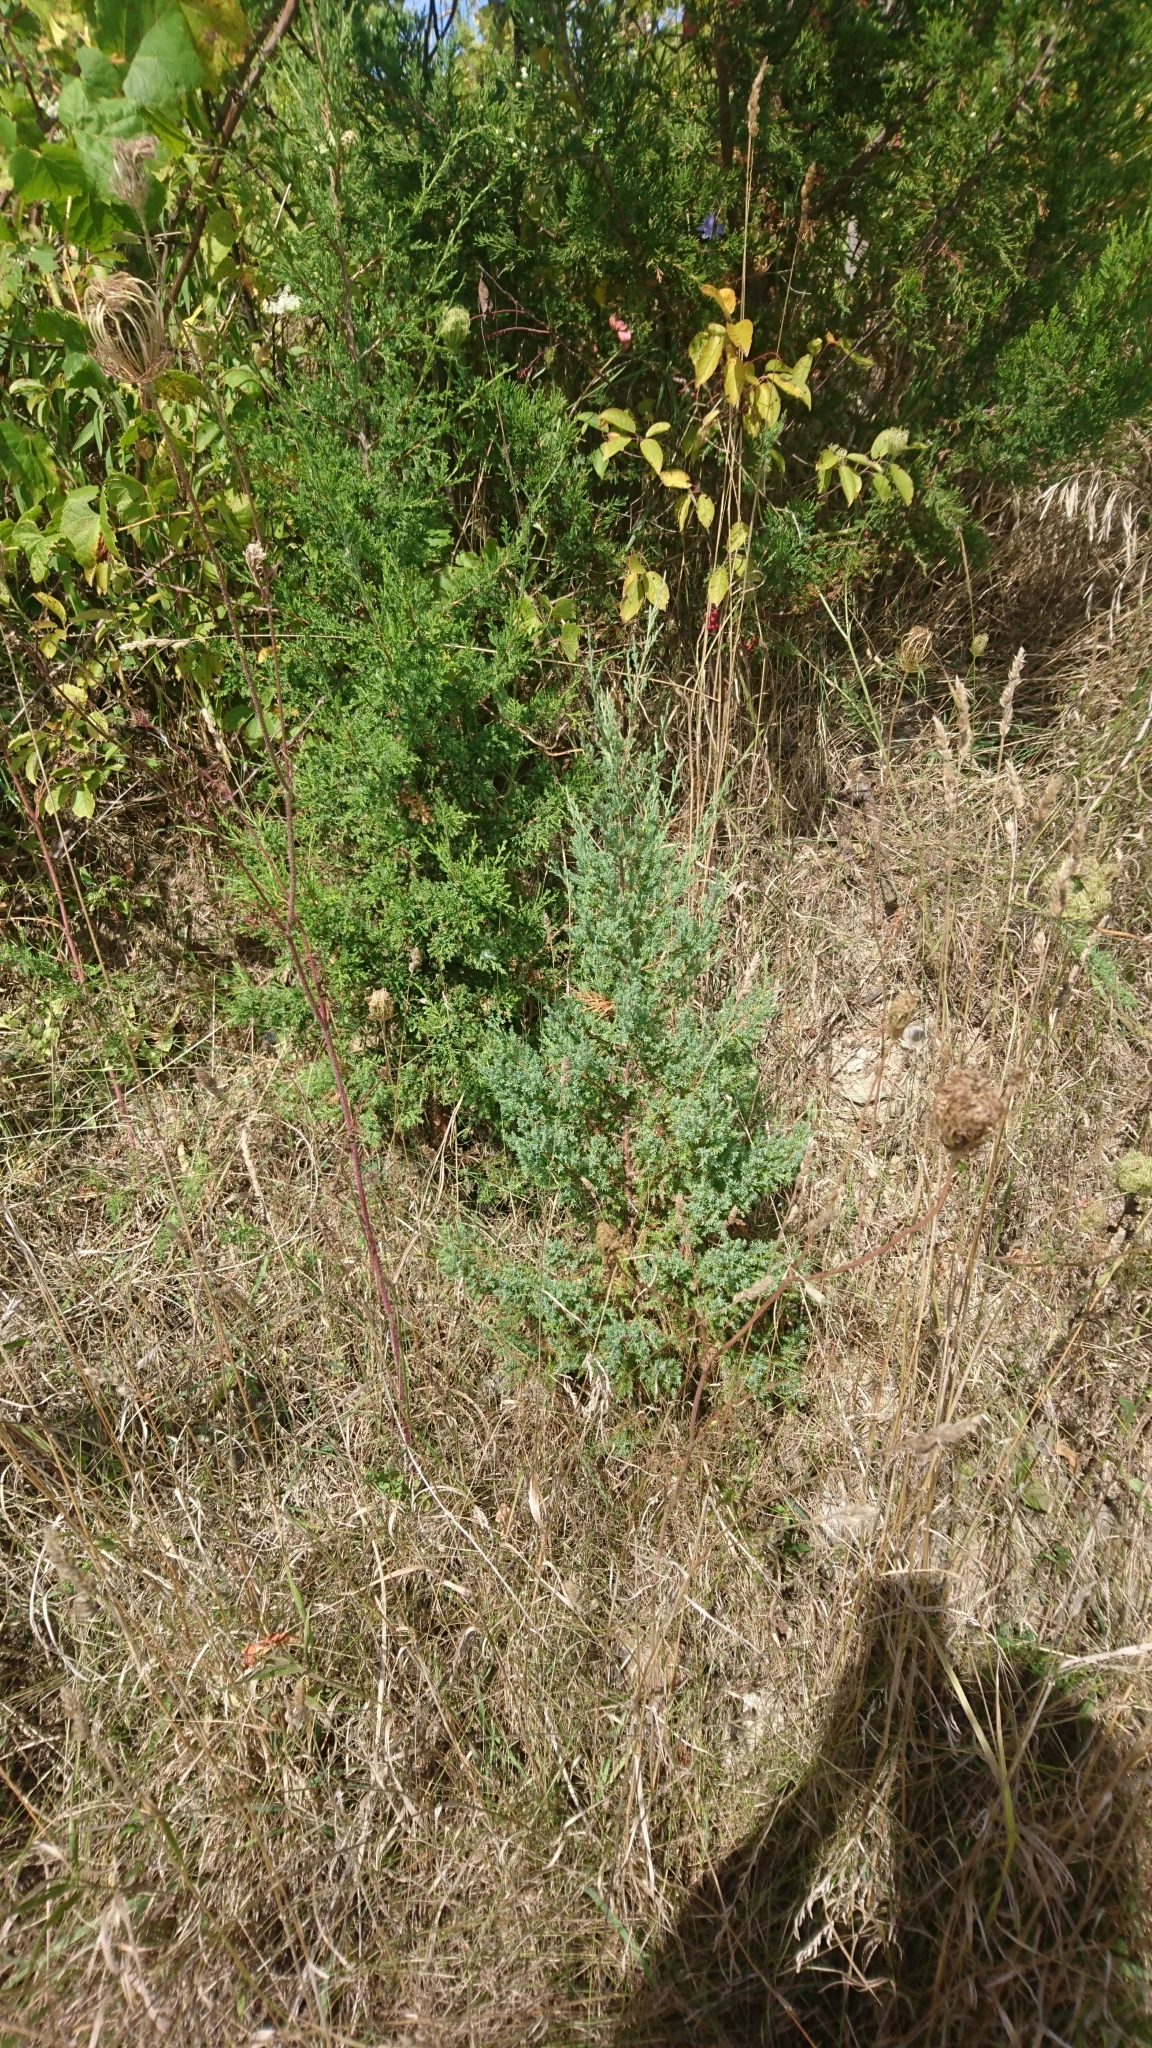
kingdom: Plantae
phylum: Tracheophyta
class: Pinopsida
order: Pinales
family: Cupressaceae
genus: Juniperus
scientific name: Juniperus virginiana
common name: Red juniper
